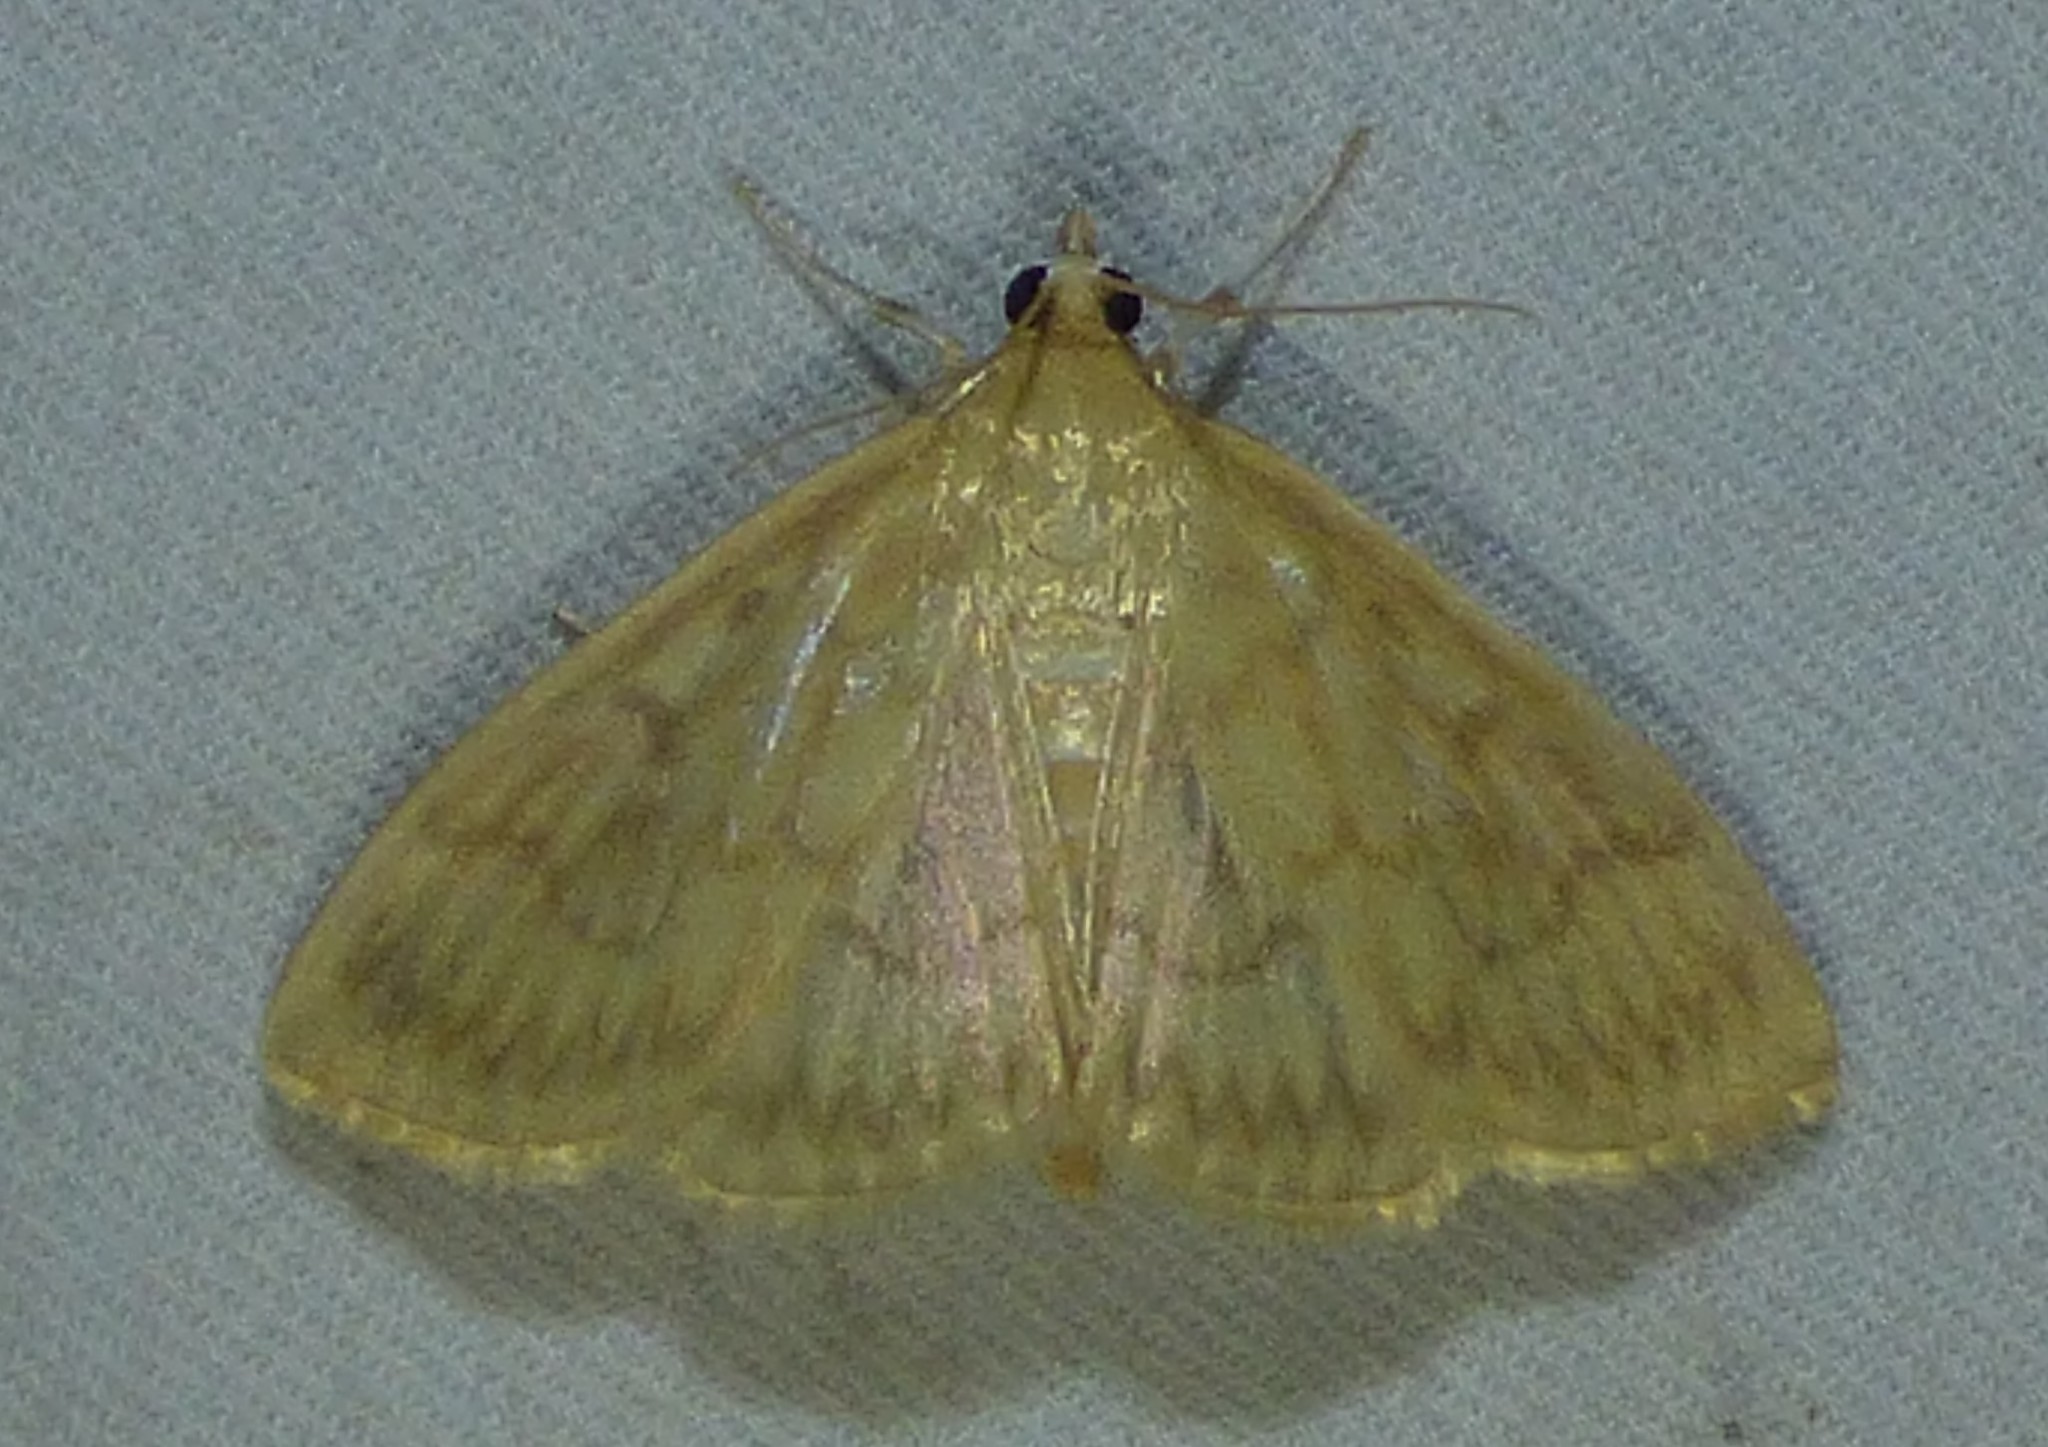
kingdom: Animalia
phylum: Arthropoda
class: Insecta
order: Lepidoptera
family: Crambidae
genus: Crocidophora
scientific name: Crocidophora serratissimalis
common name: Saw-toothed crocidophora moth
